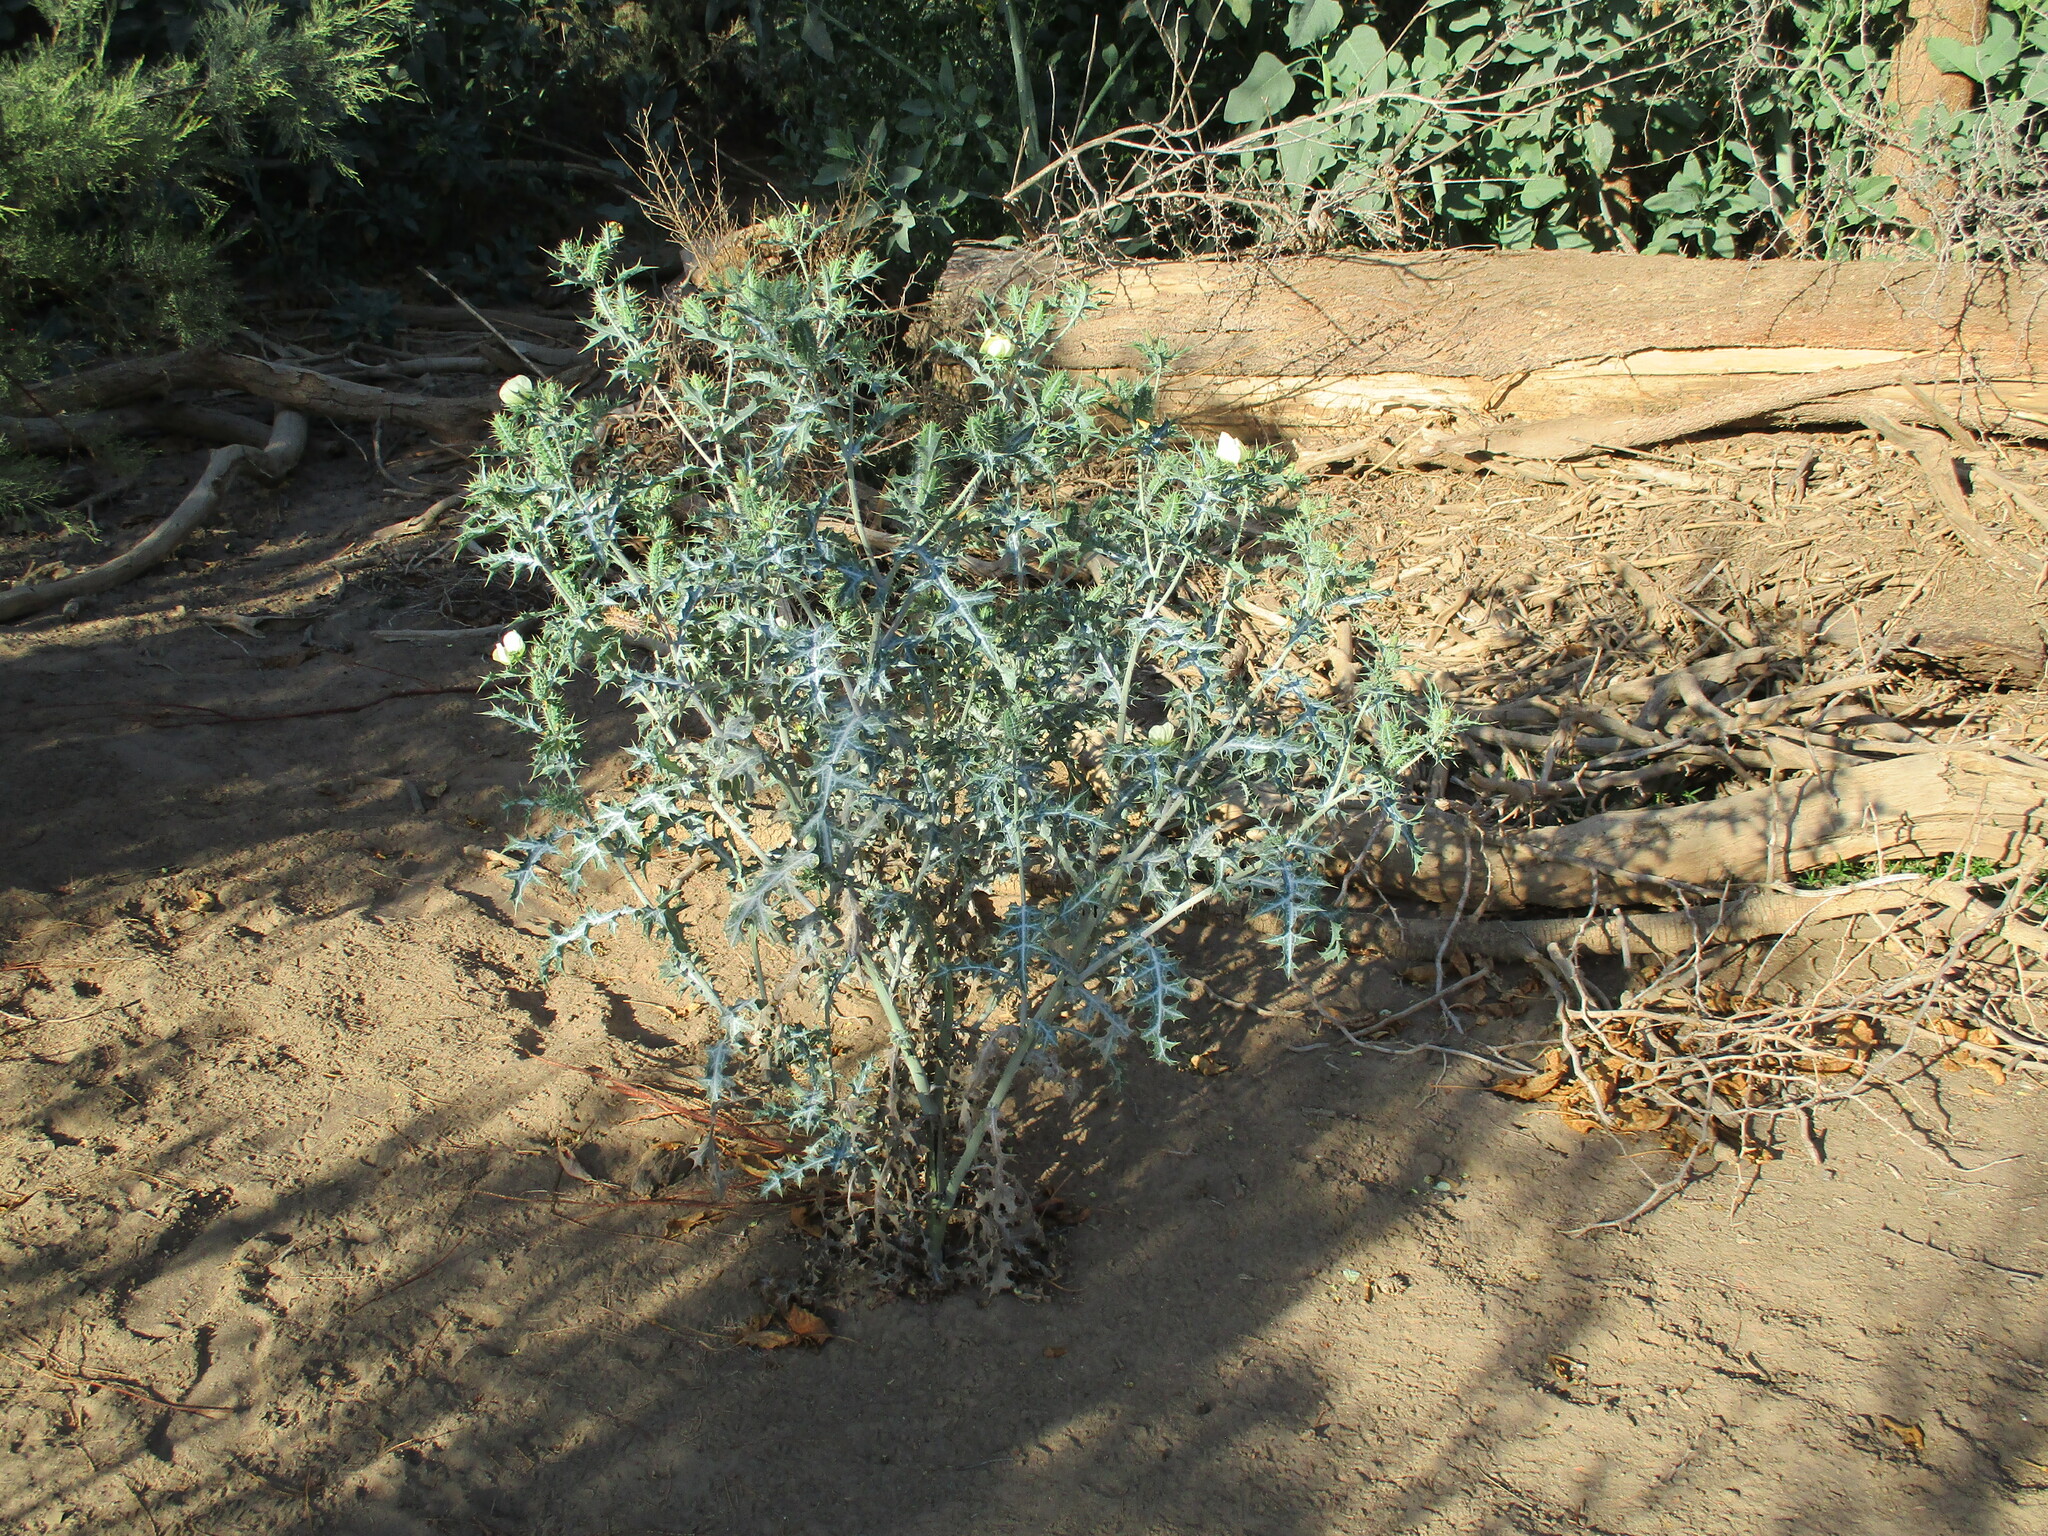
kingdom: Plantae
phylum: Tracheophyta
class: Magnoliopsida
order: Ranunculales
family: Papaveraceae
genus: Argemone
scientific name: Argemone ochroleuca
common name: White-flower mexican-poppy
